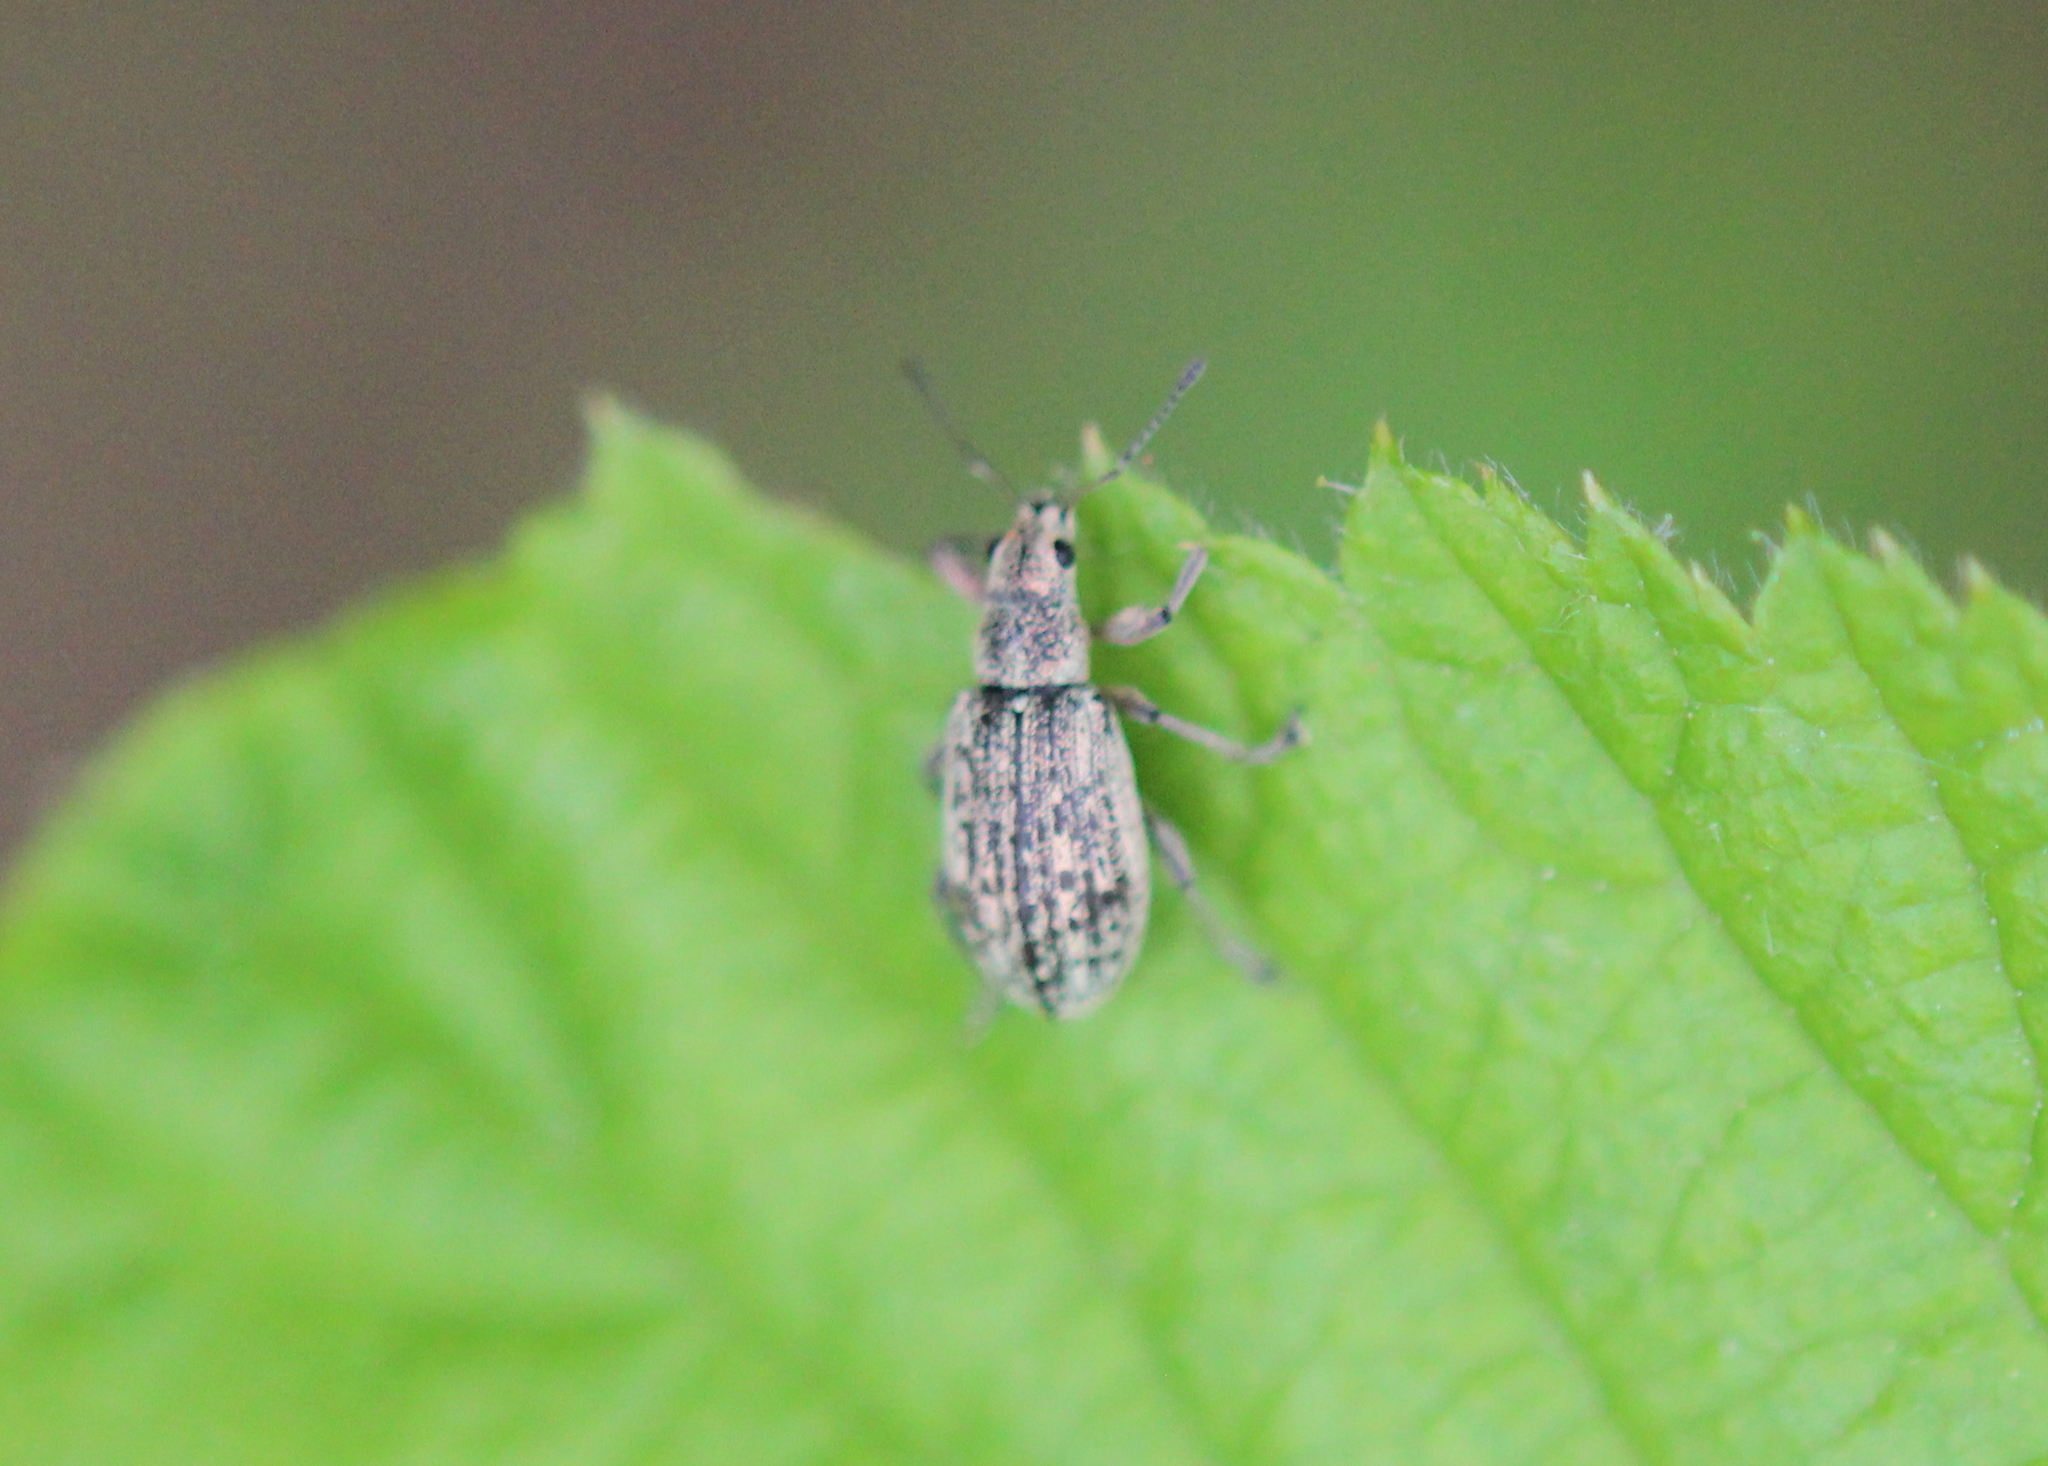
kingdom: Animalia
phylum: Arthropoda
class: Insecta
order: Coleoptera
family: Curculionidae
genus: Polydrusus
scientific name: Polydrusus cervinus
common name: Weevil
